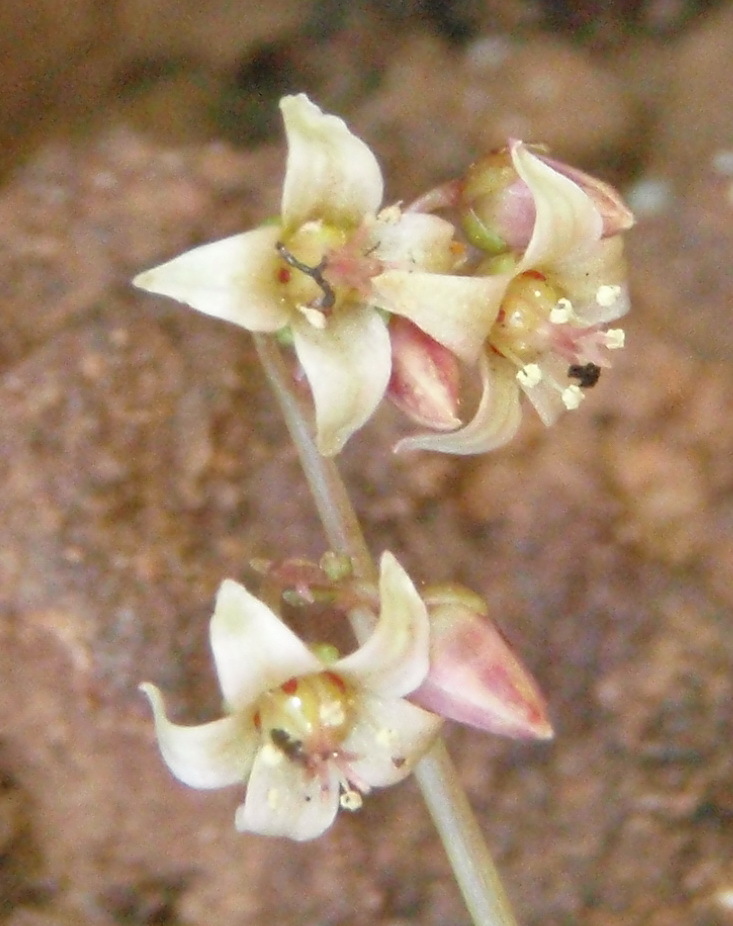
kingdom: Plantae
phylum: Tracheophyta
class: Magnoliopsida
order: Saxifragales
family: Crassulaceae
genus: Crassula
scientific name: Crassula umbella
